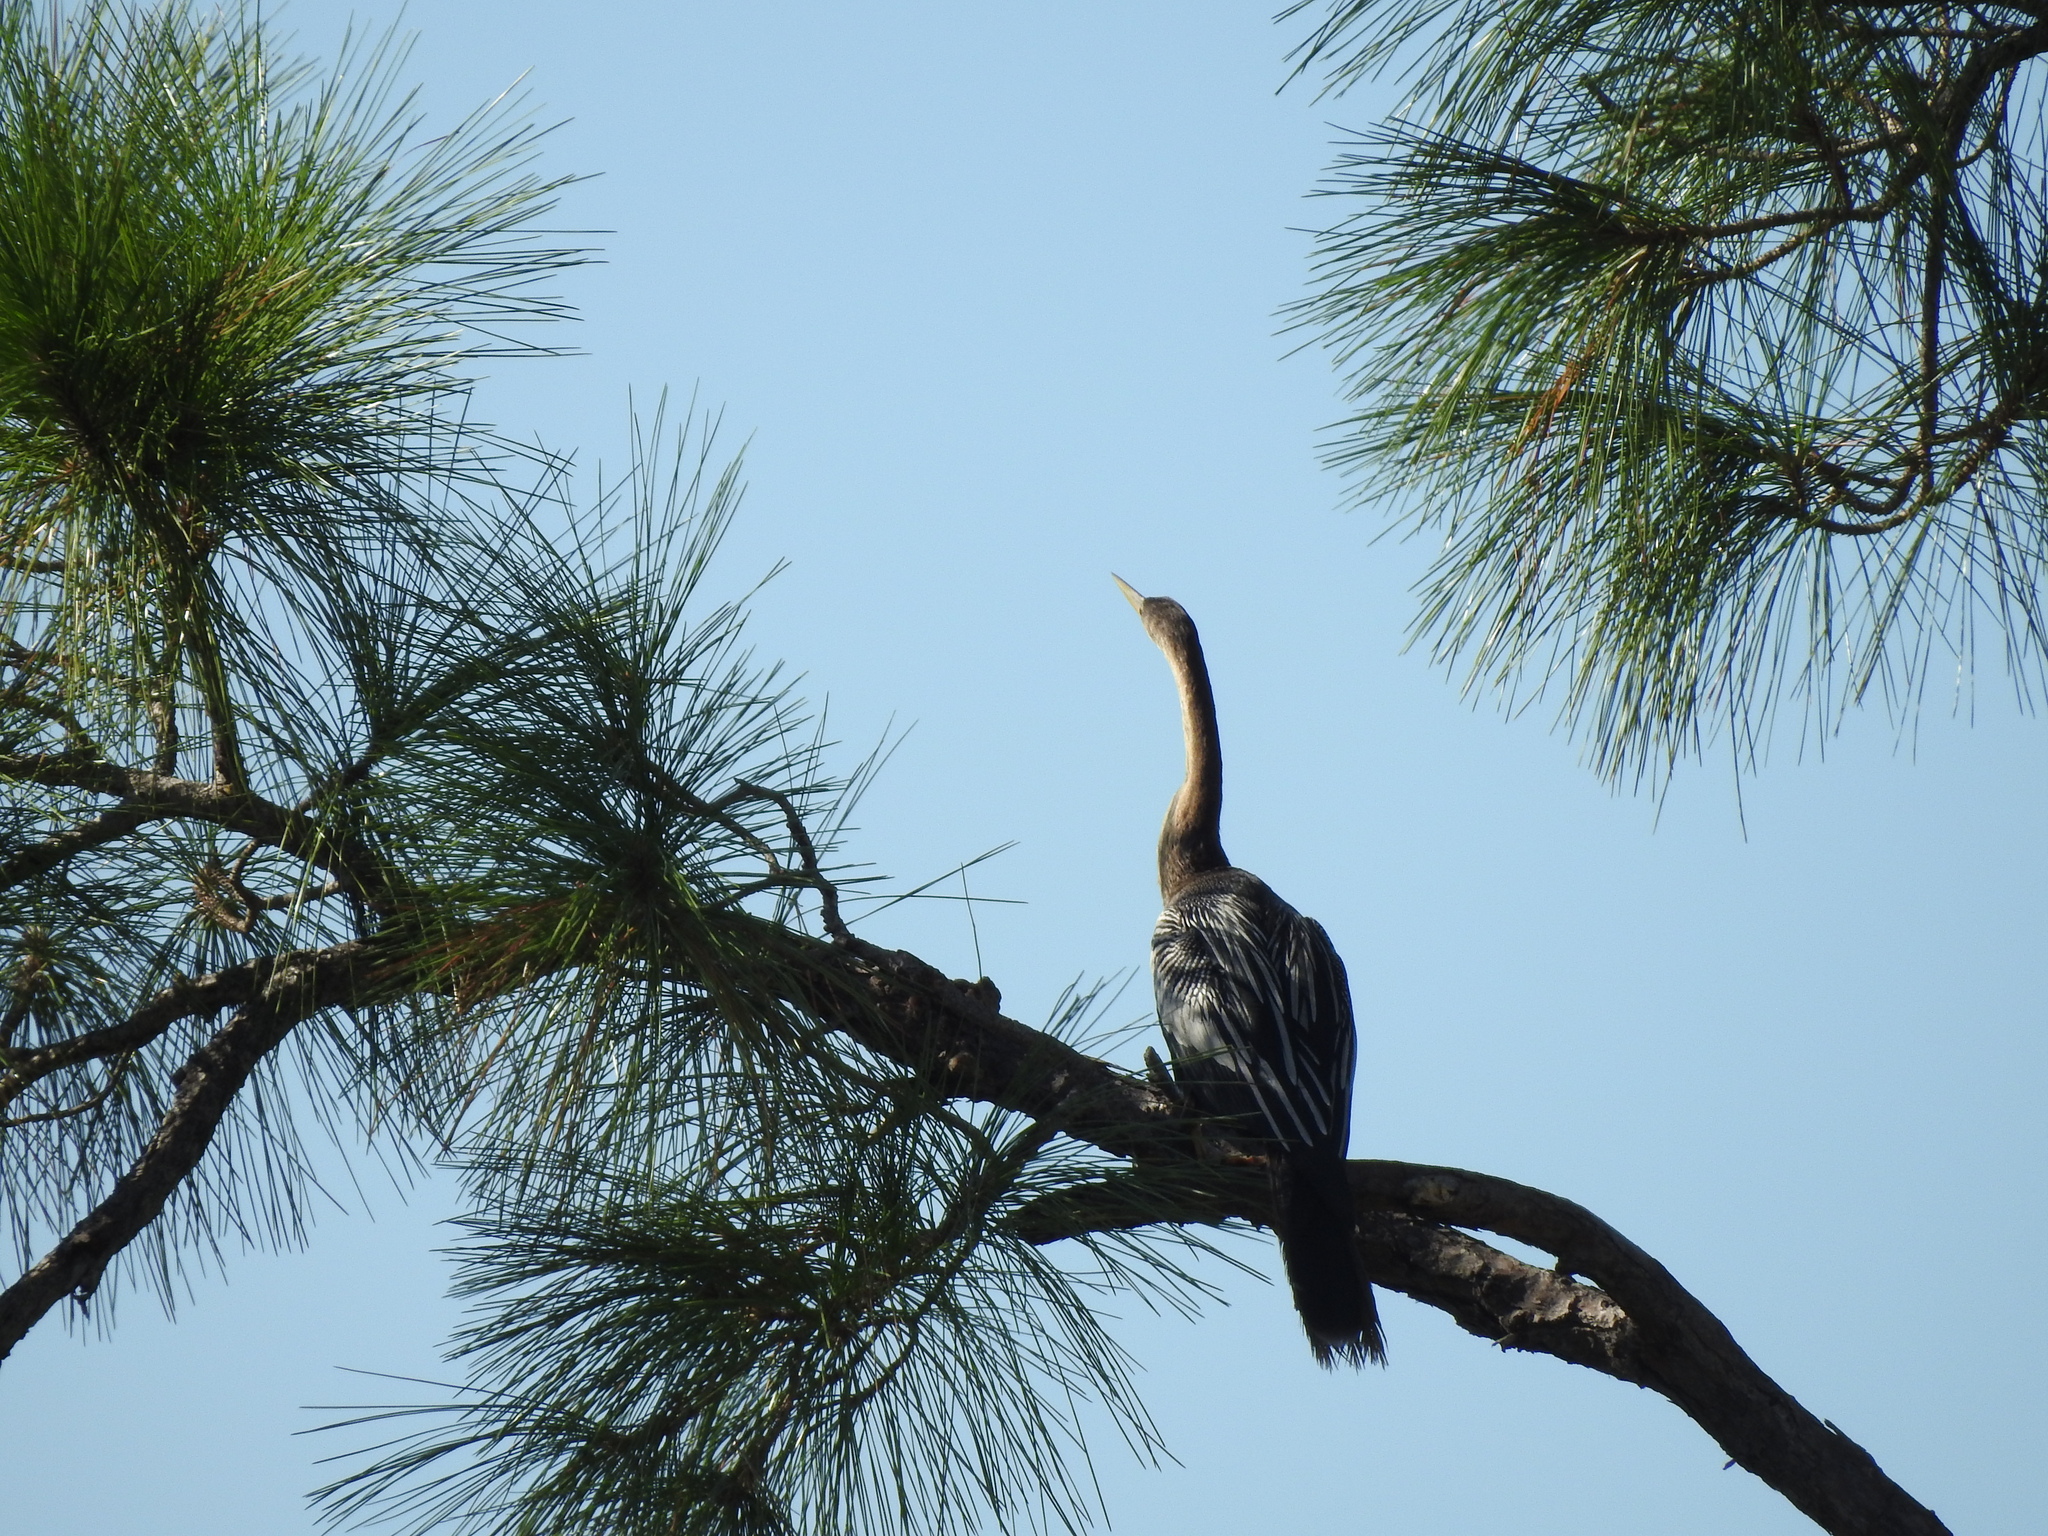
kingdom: Animalia
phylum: Chordata
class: Aves
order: Suliformes
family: Anhingidae
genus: Anhinga
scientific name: Anhinga anhinga
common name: Anhinga
